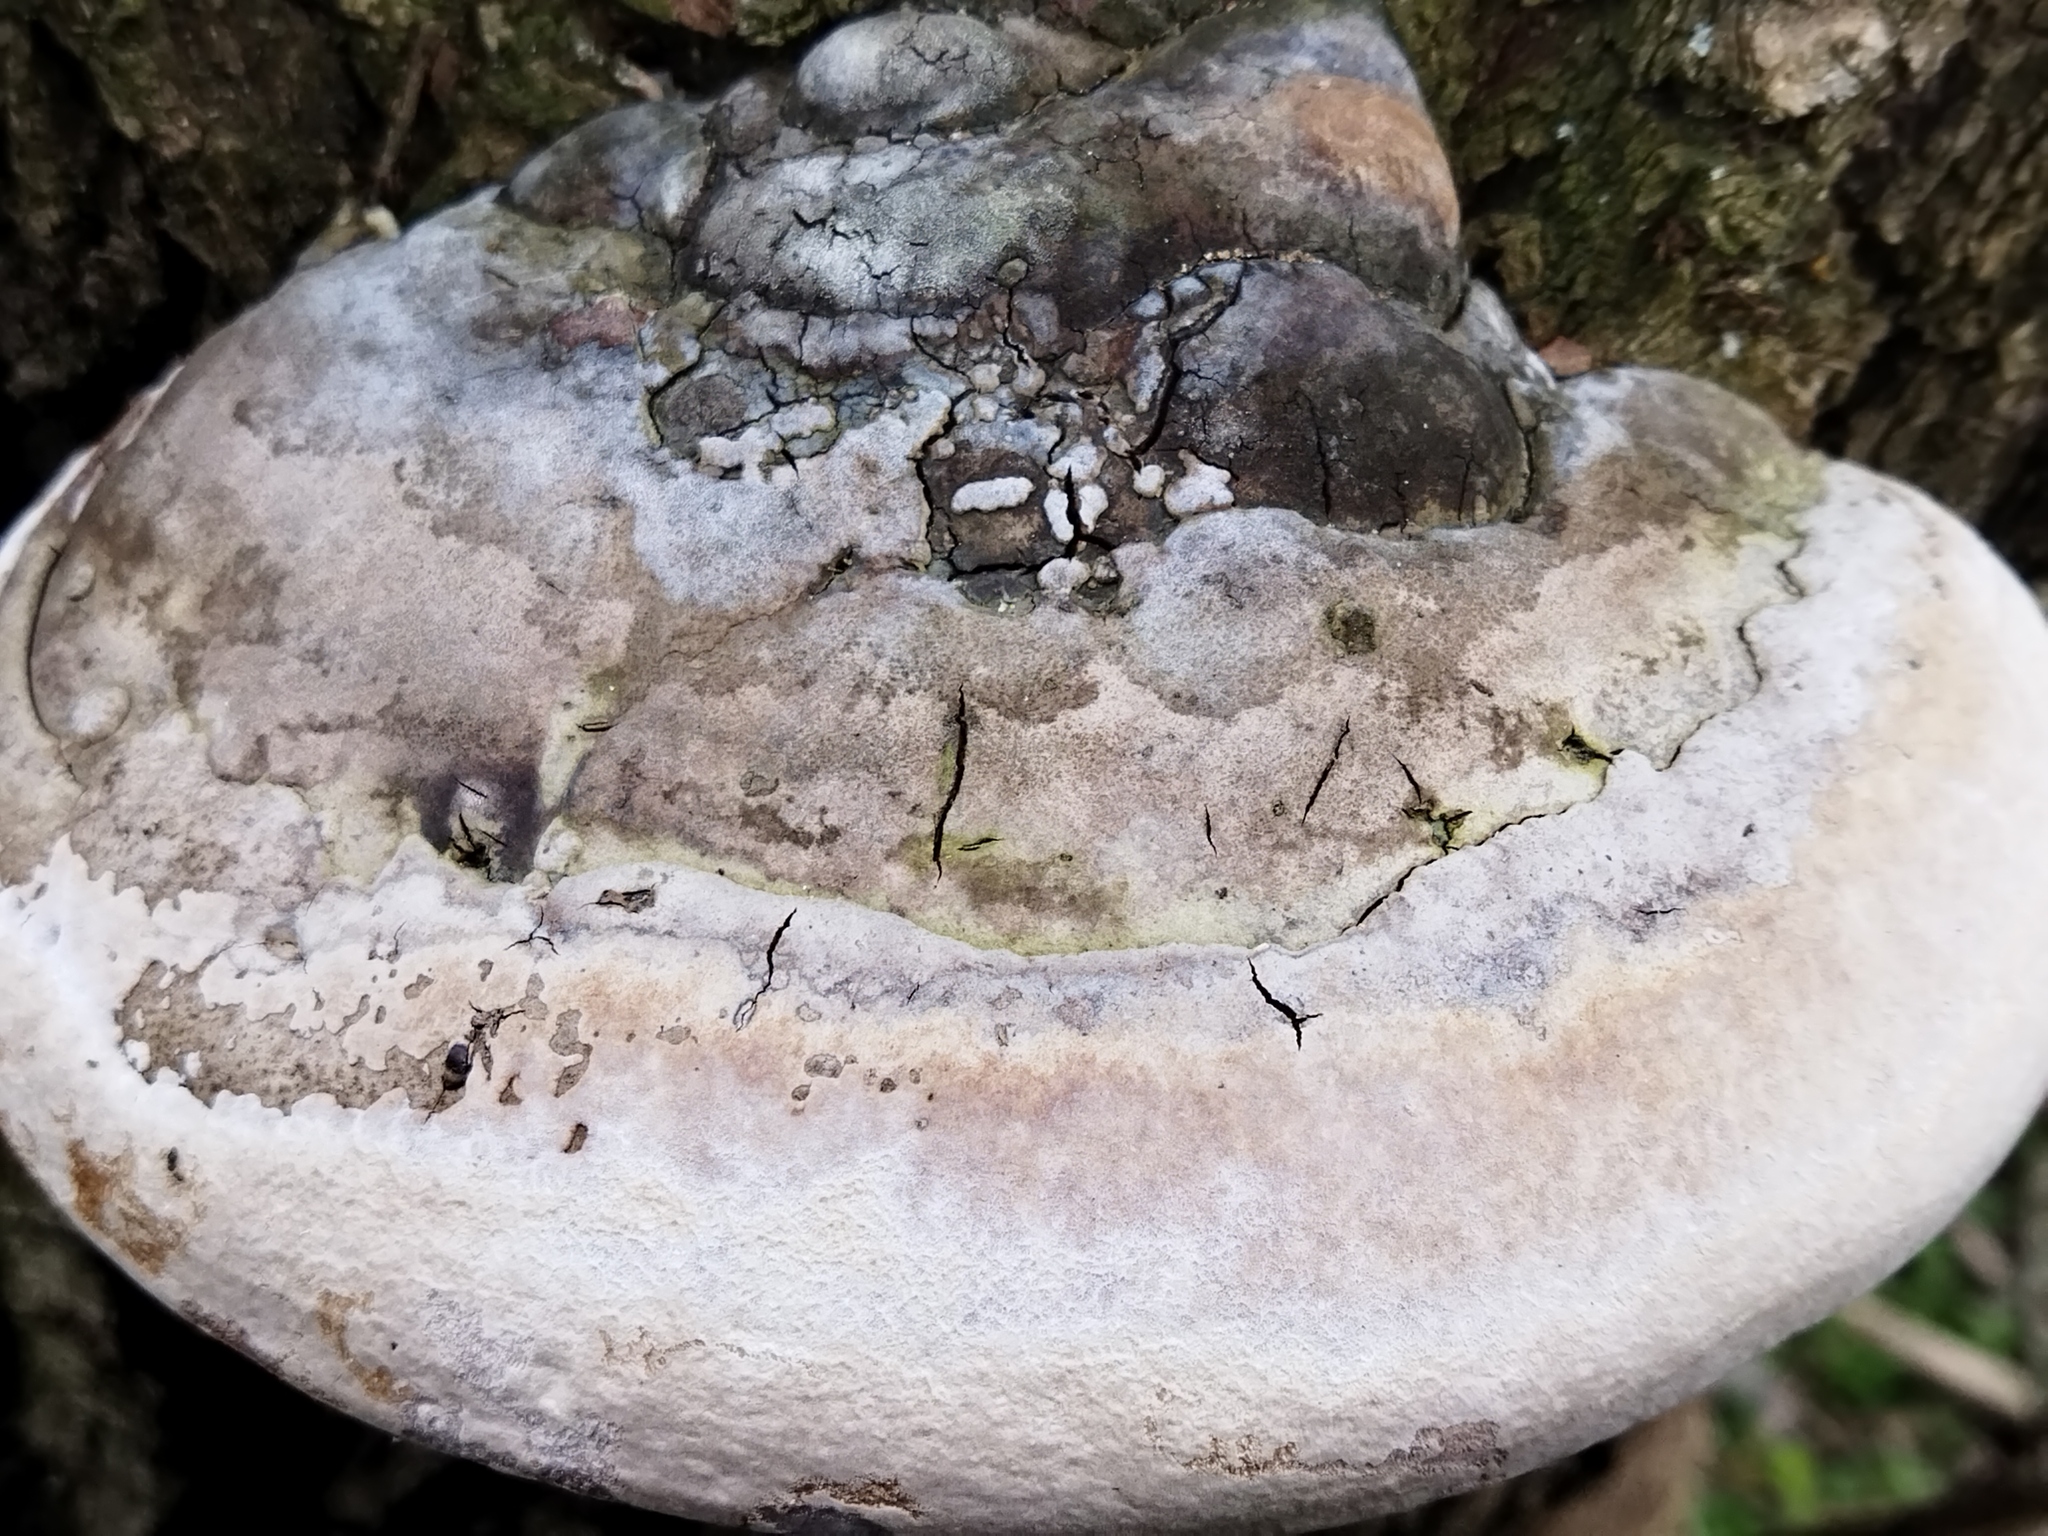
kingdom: Fungi
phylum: Basidiomycota
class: Agaricomycetes
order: Hymenochaetales
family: Hymenochaetaceae
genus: Phellinus
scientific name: Phellinus populicola
